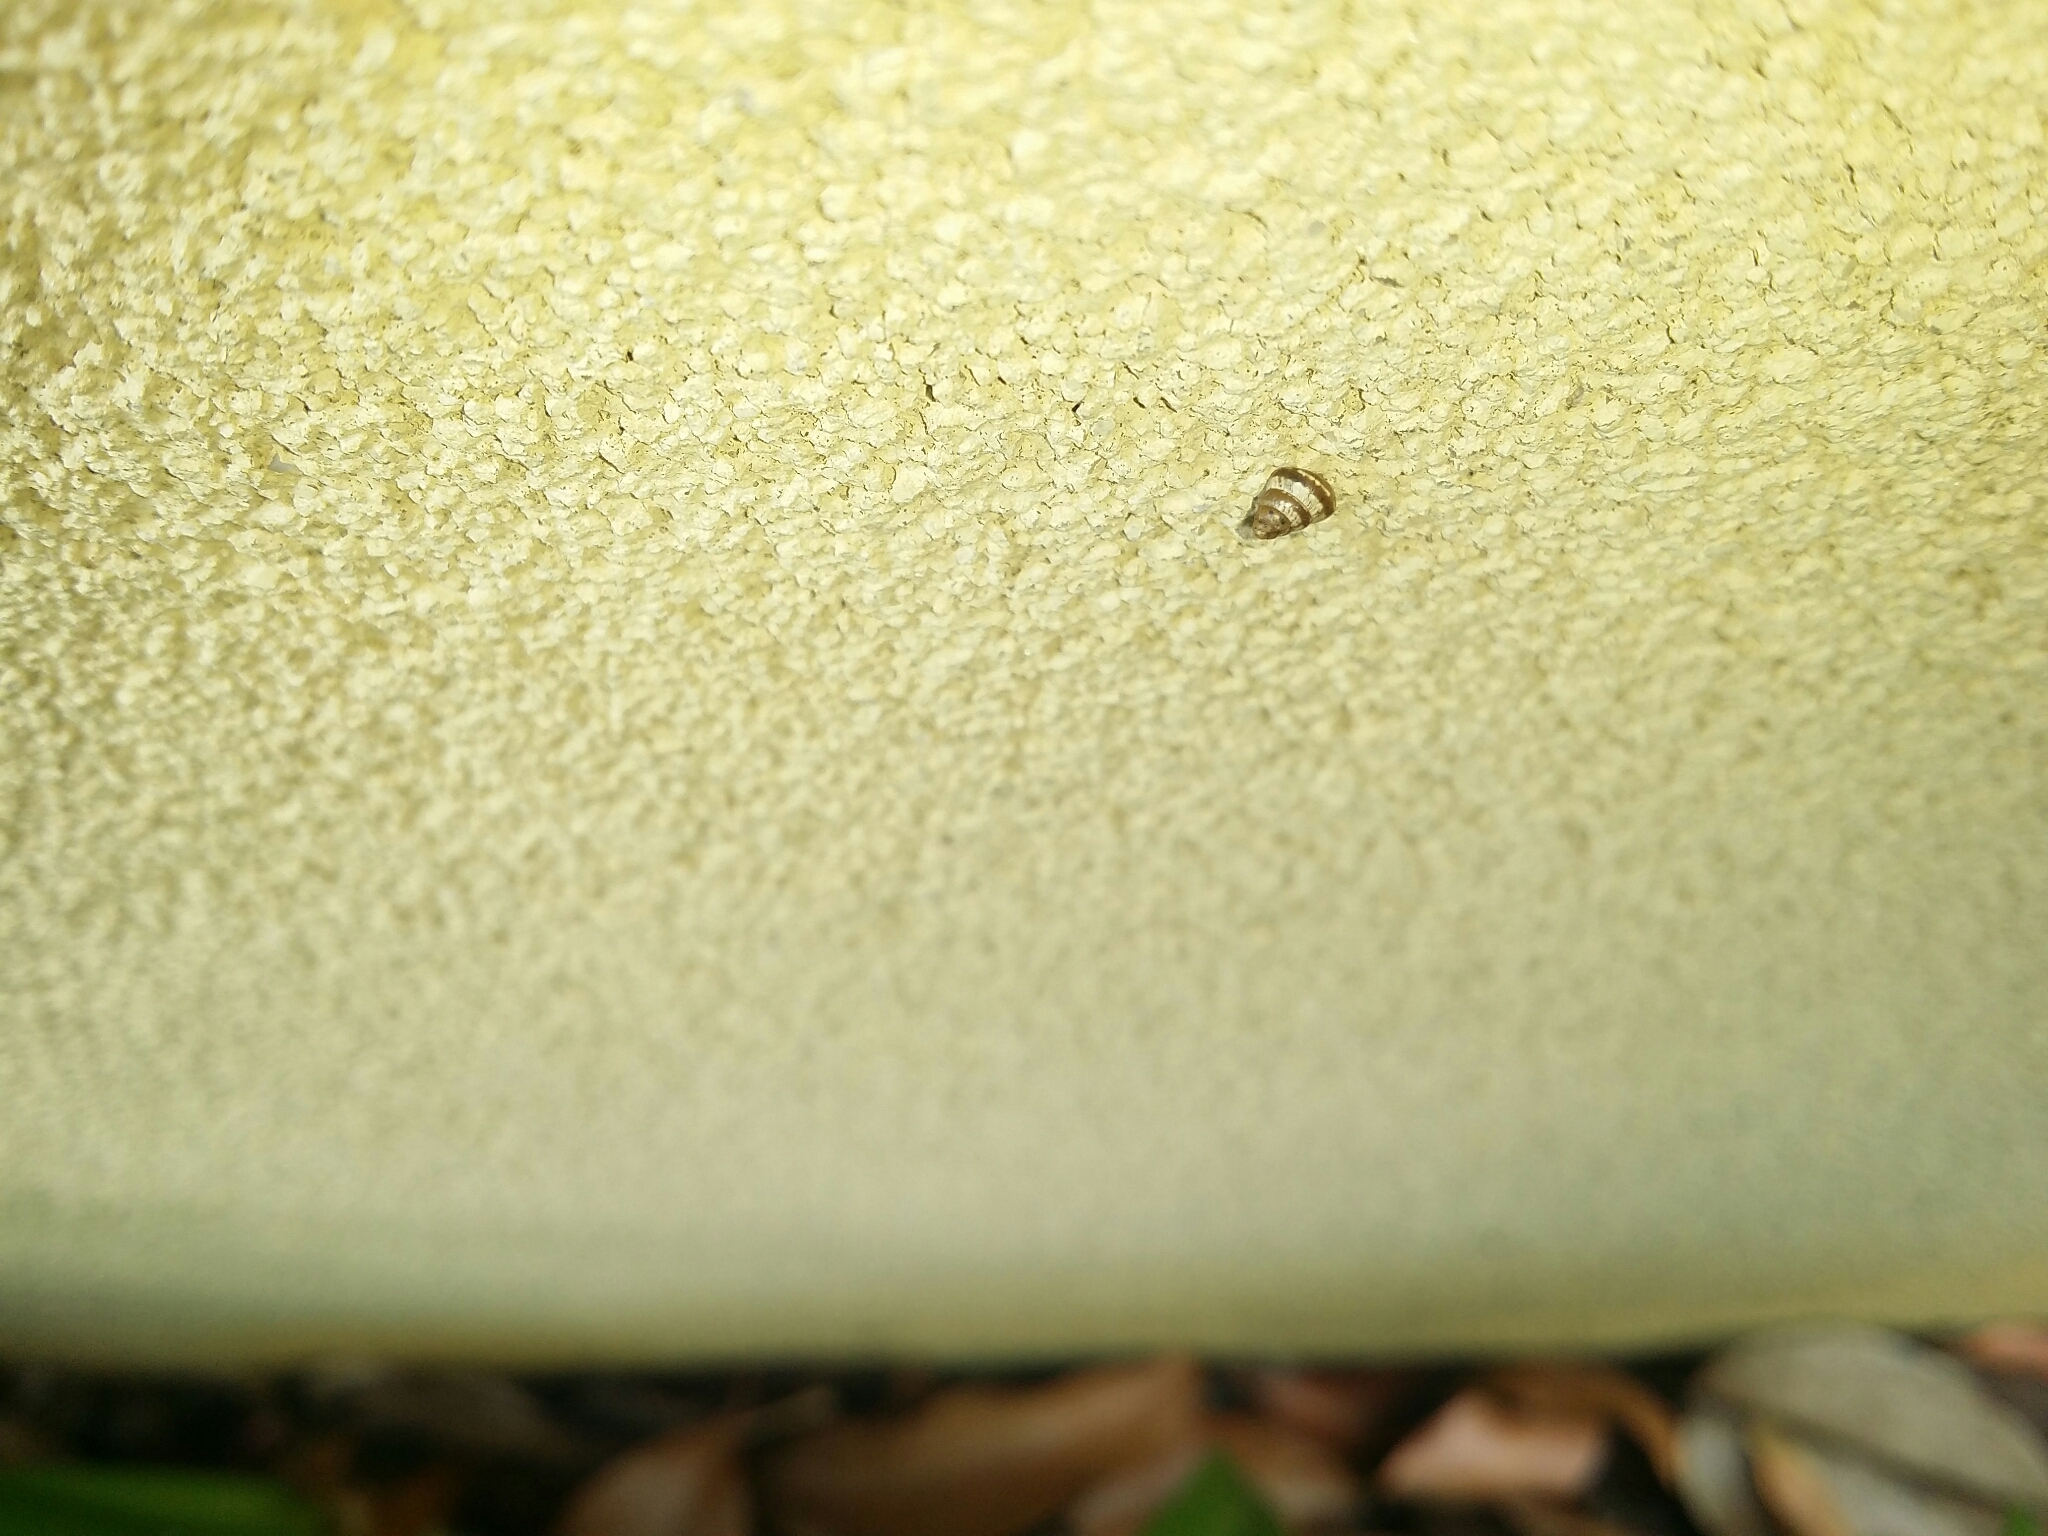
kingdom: Animalia
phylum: Mollusca
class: Gastropoda
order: Stylommatophora
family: Geomitridae
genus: Cochlicella
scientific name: Cochlicella barbara
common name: Potbellied helicellid
